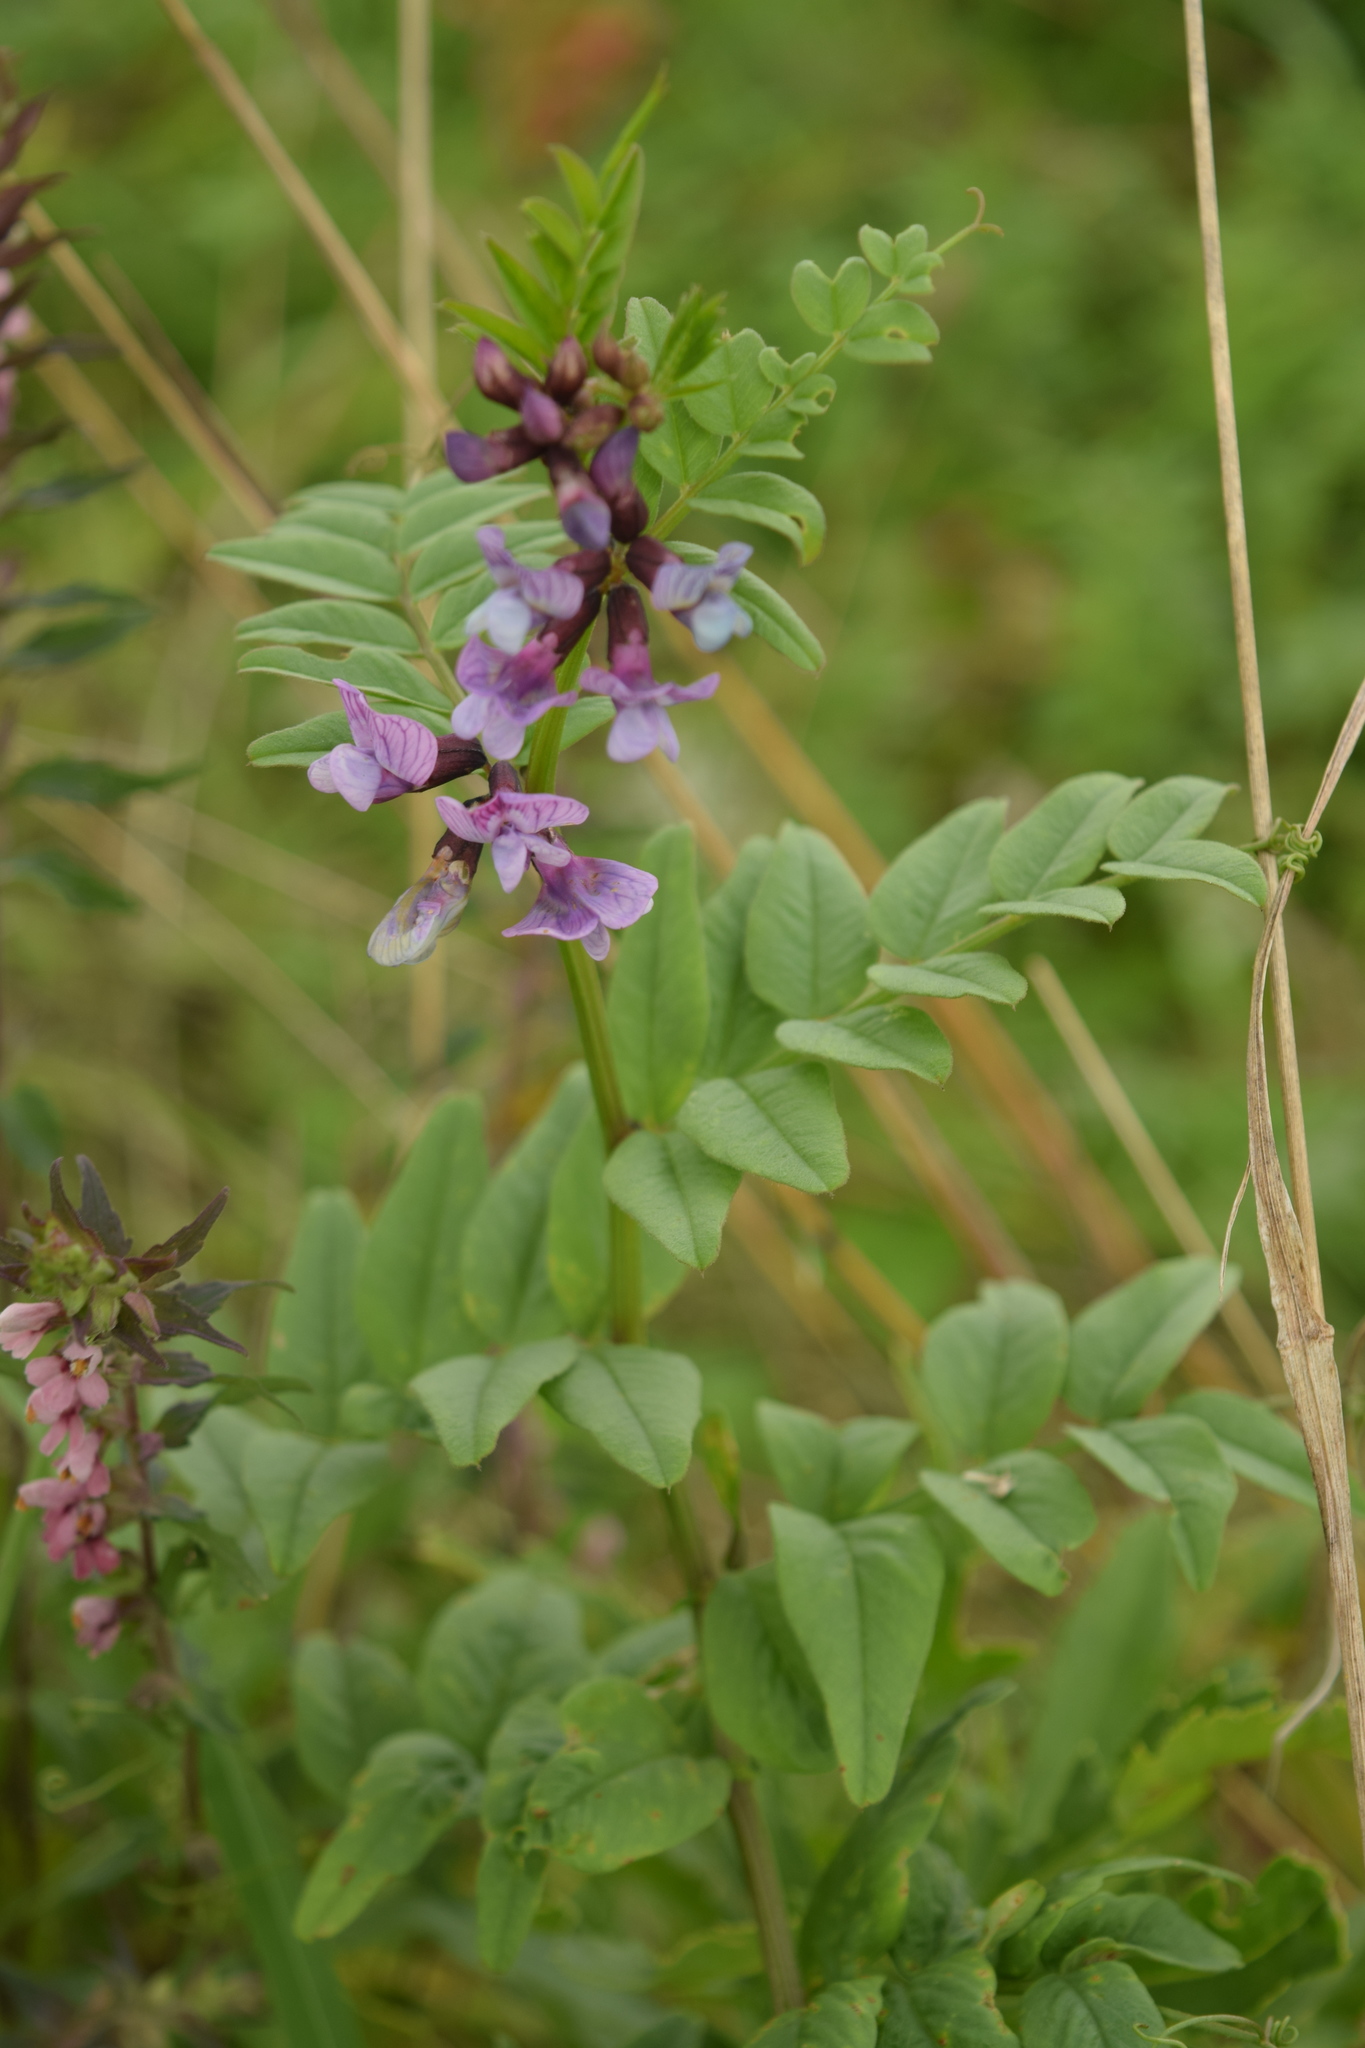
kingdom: Plantae
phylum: Tracheophyta
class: Magnoliopsida
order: Fabales
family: Fabaceae
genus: Vicia
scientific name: Vicia sepium
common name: Bush vetch
